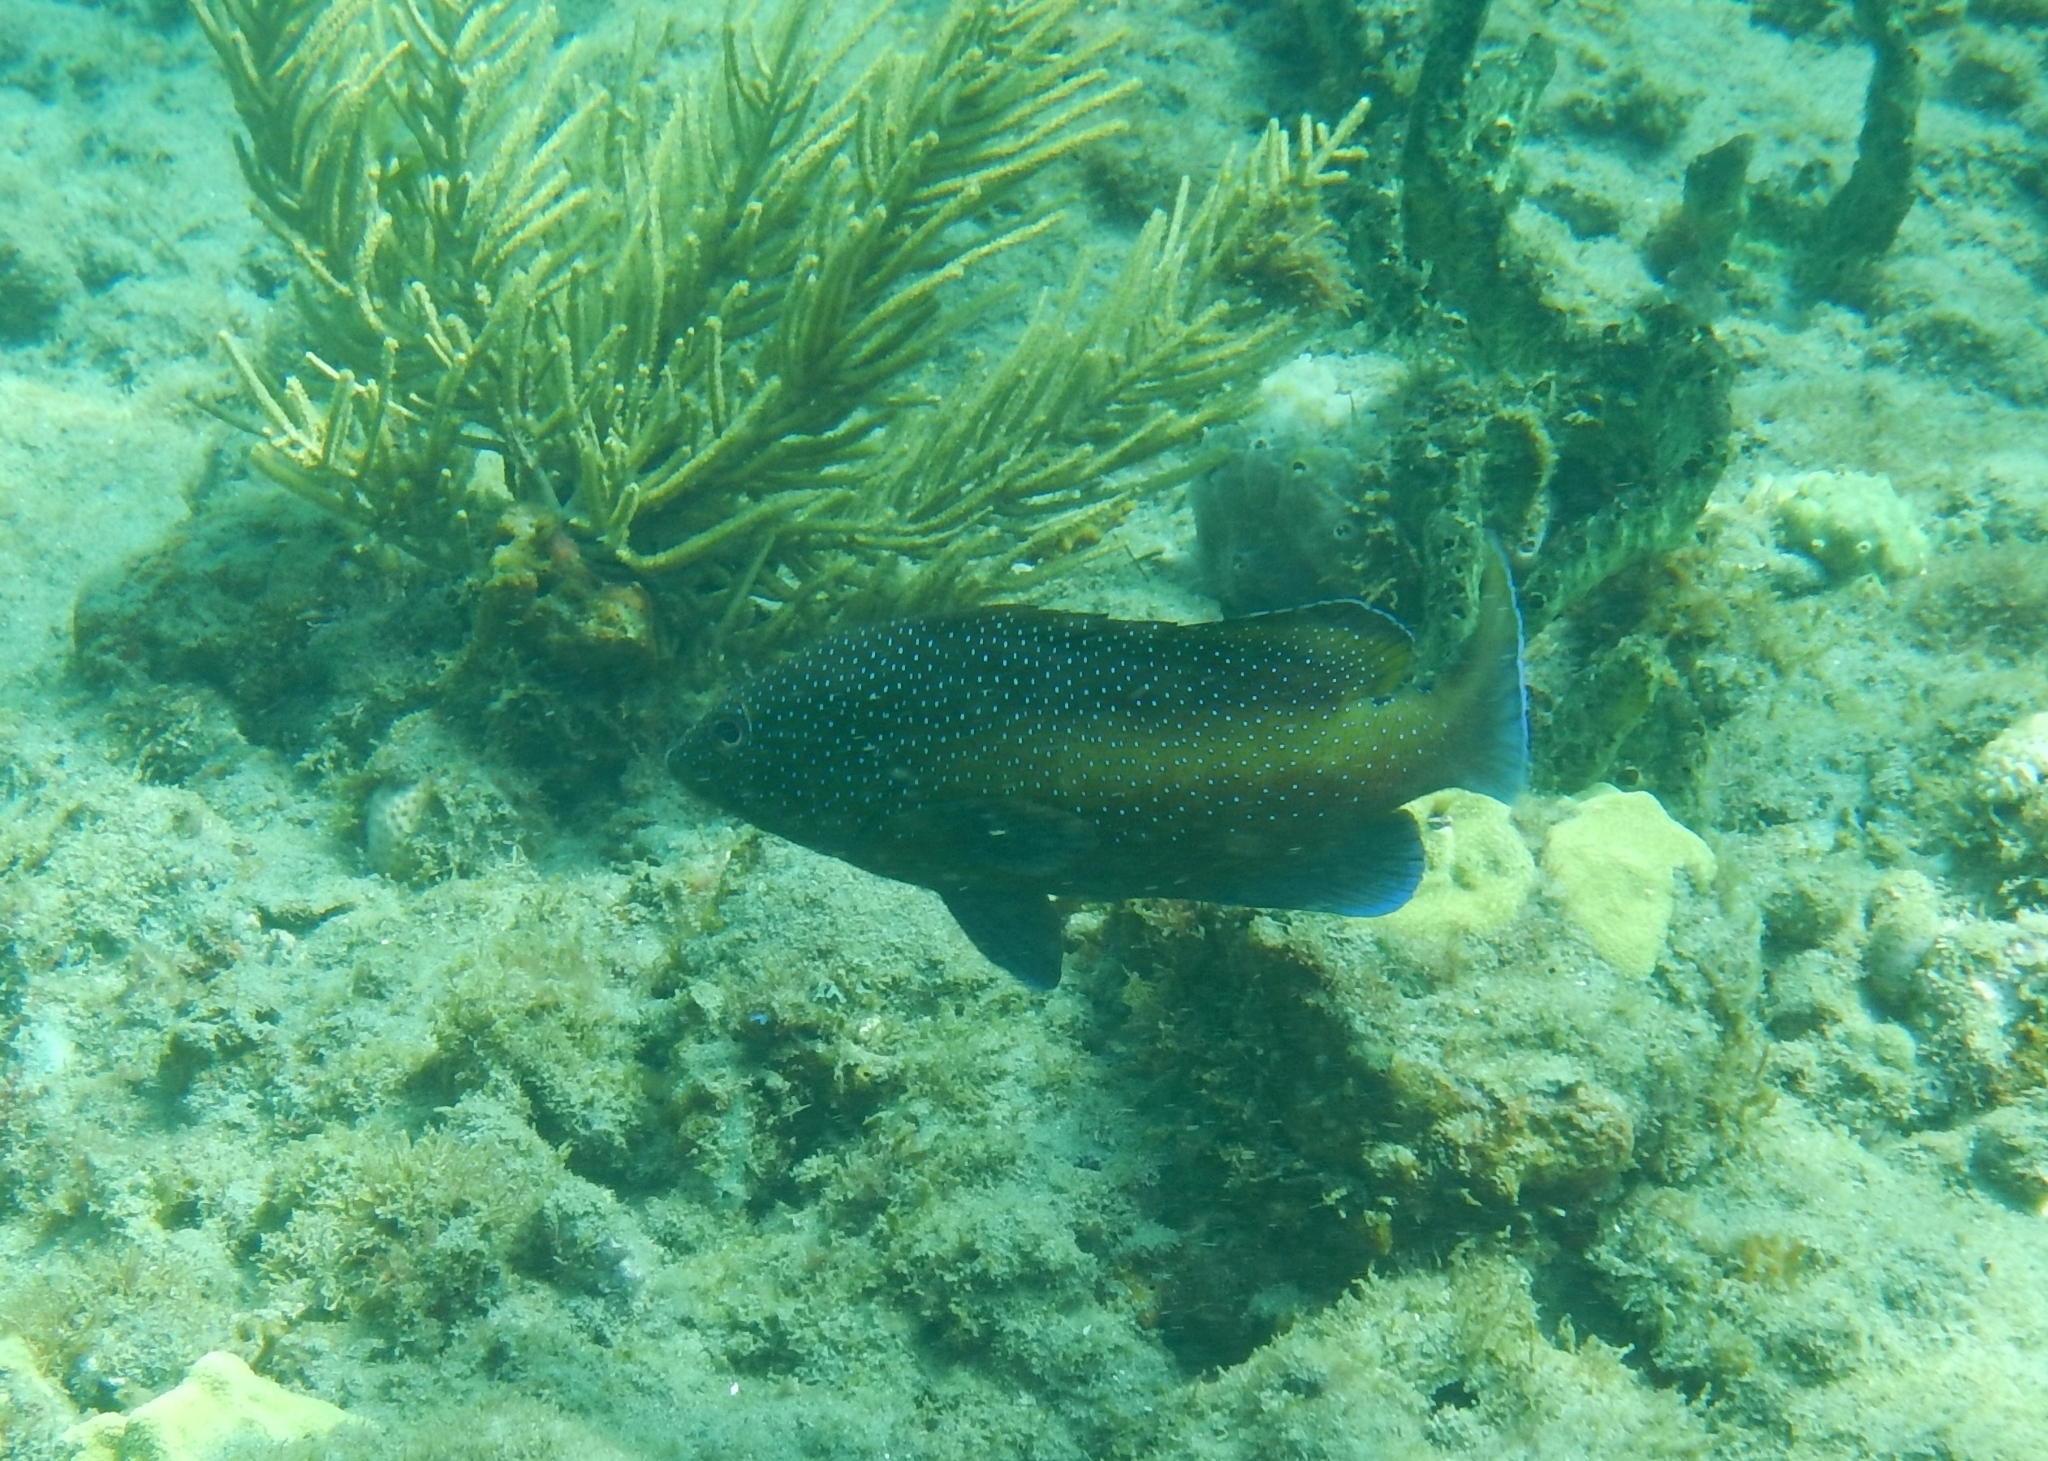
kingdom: Animalia
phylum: Chordata
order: Perciformes
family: Serranidae
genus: Cephalopholis
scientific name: Cephalopholis fulva
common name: Butterfish
